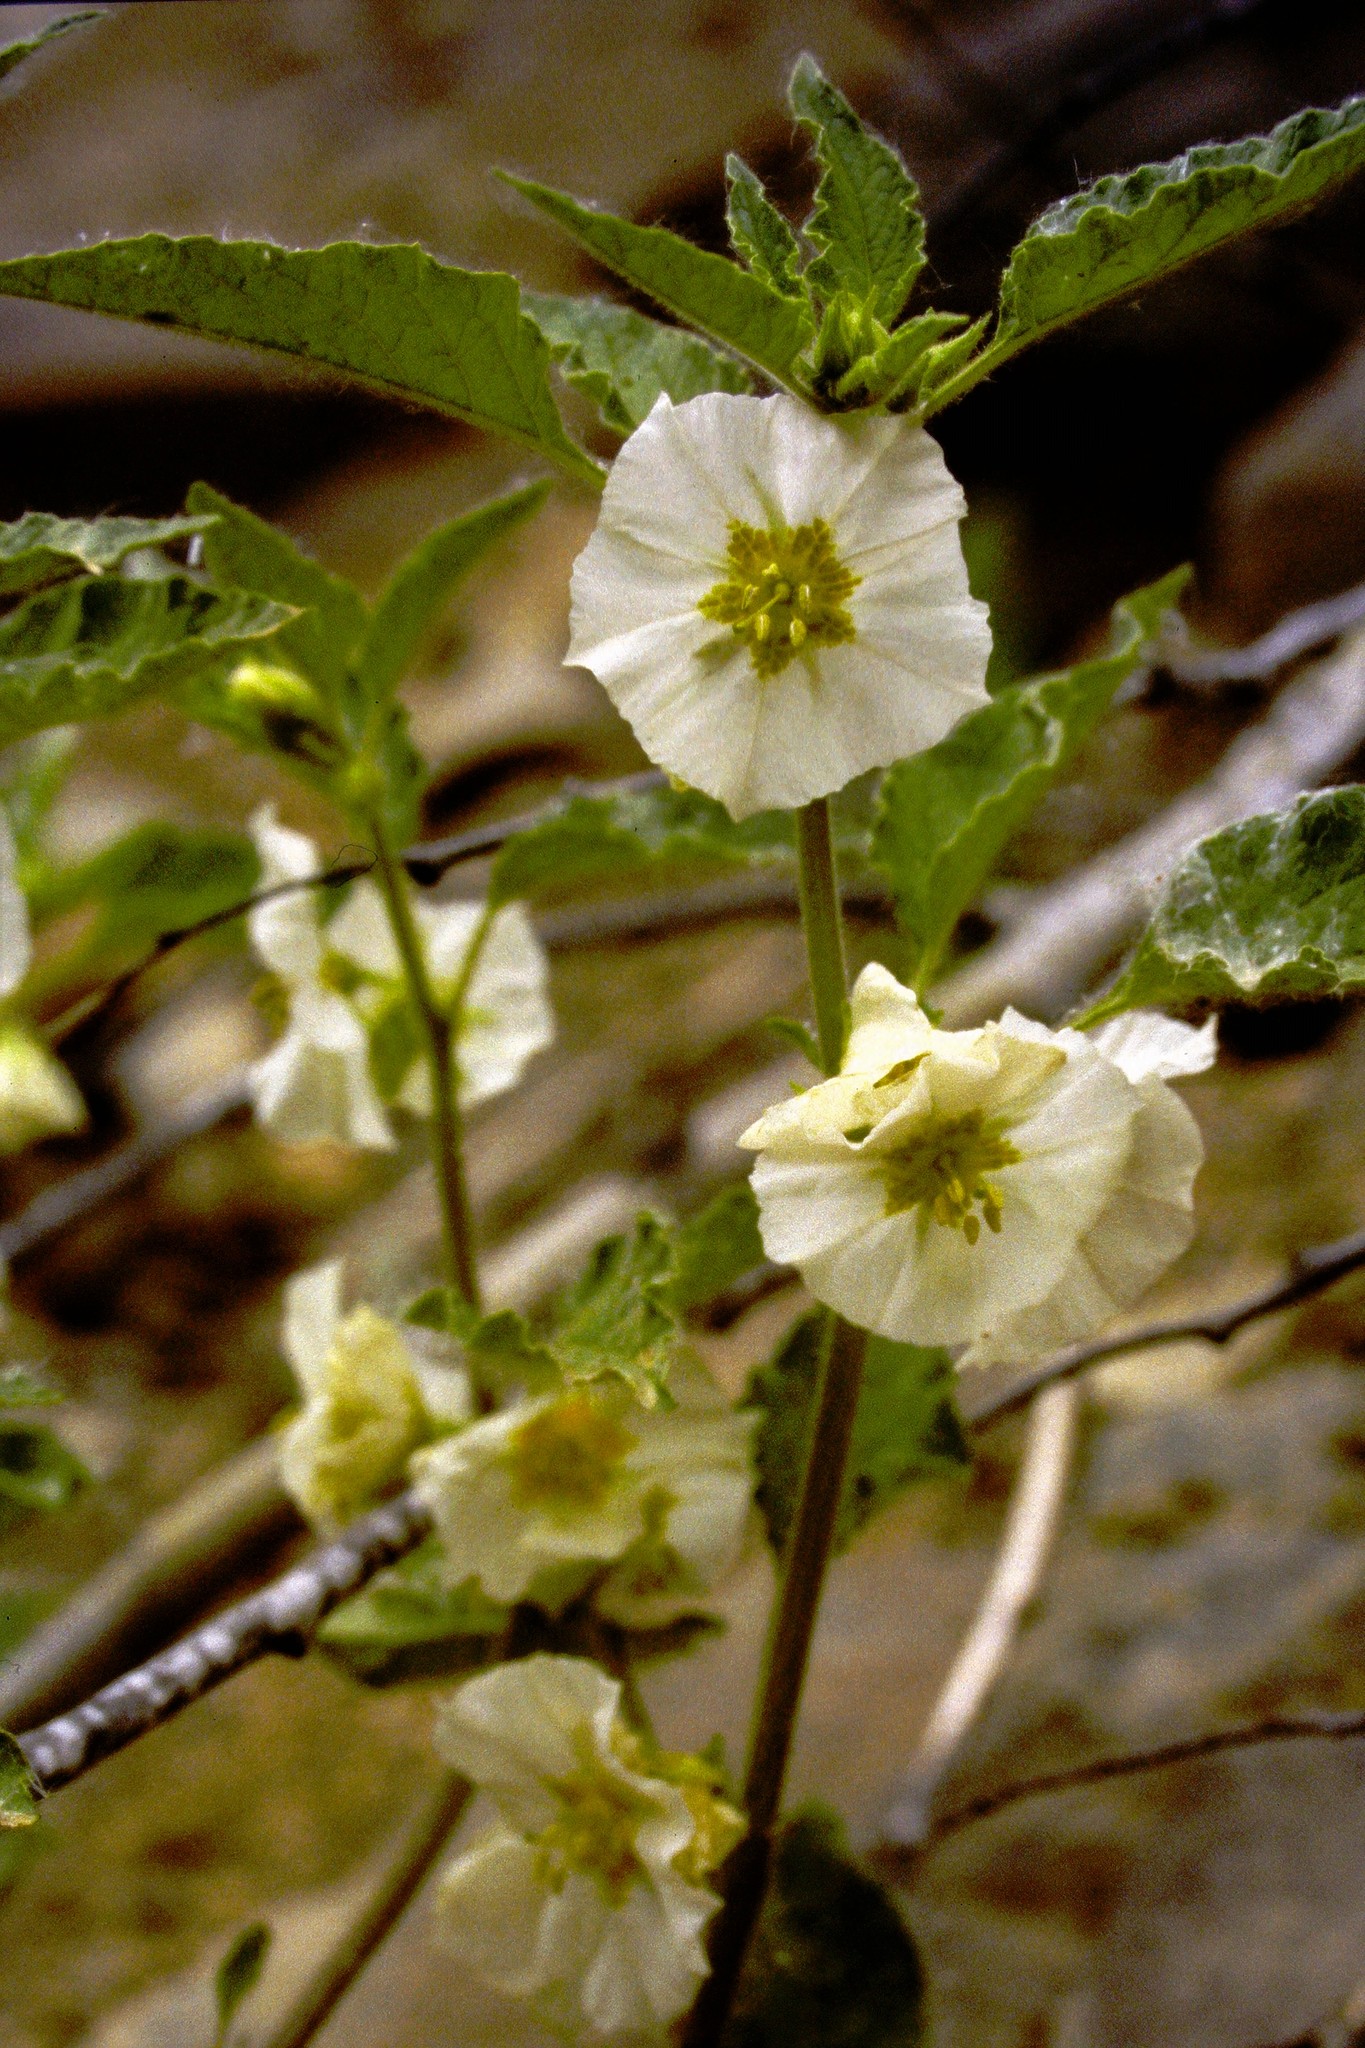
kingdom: Plantae
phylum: Tracheophyta
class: Magnoliopsida
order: Solanales
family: Solanaceae
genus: Leucophysalis
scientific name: Leucophysalis grandiflora
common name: Large false ground-cherry
